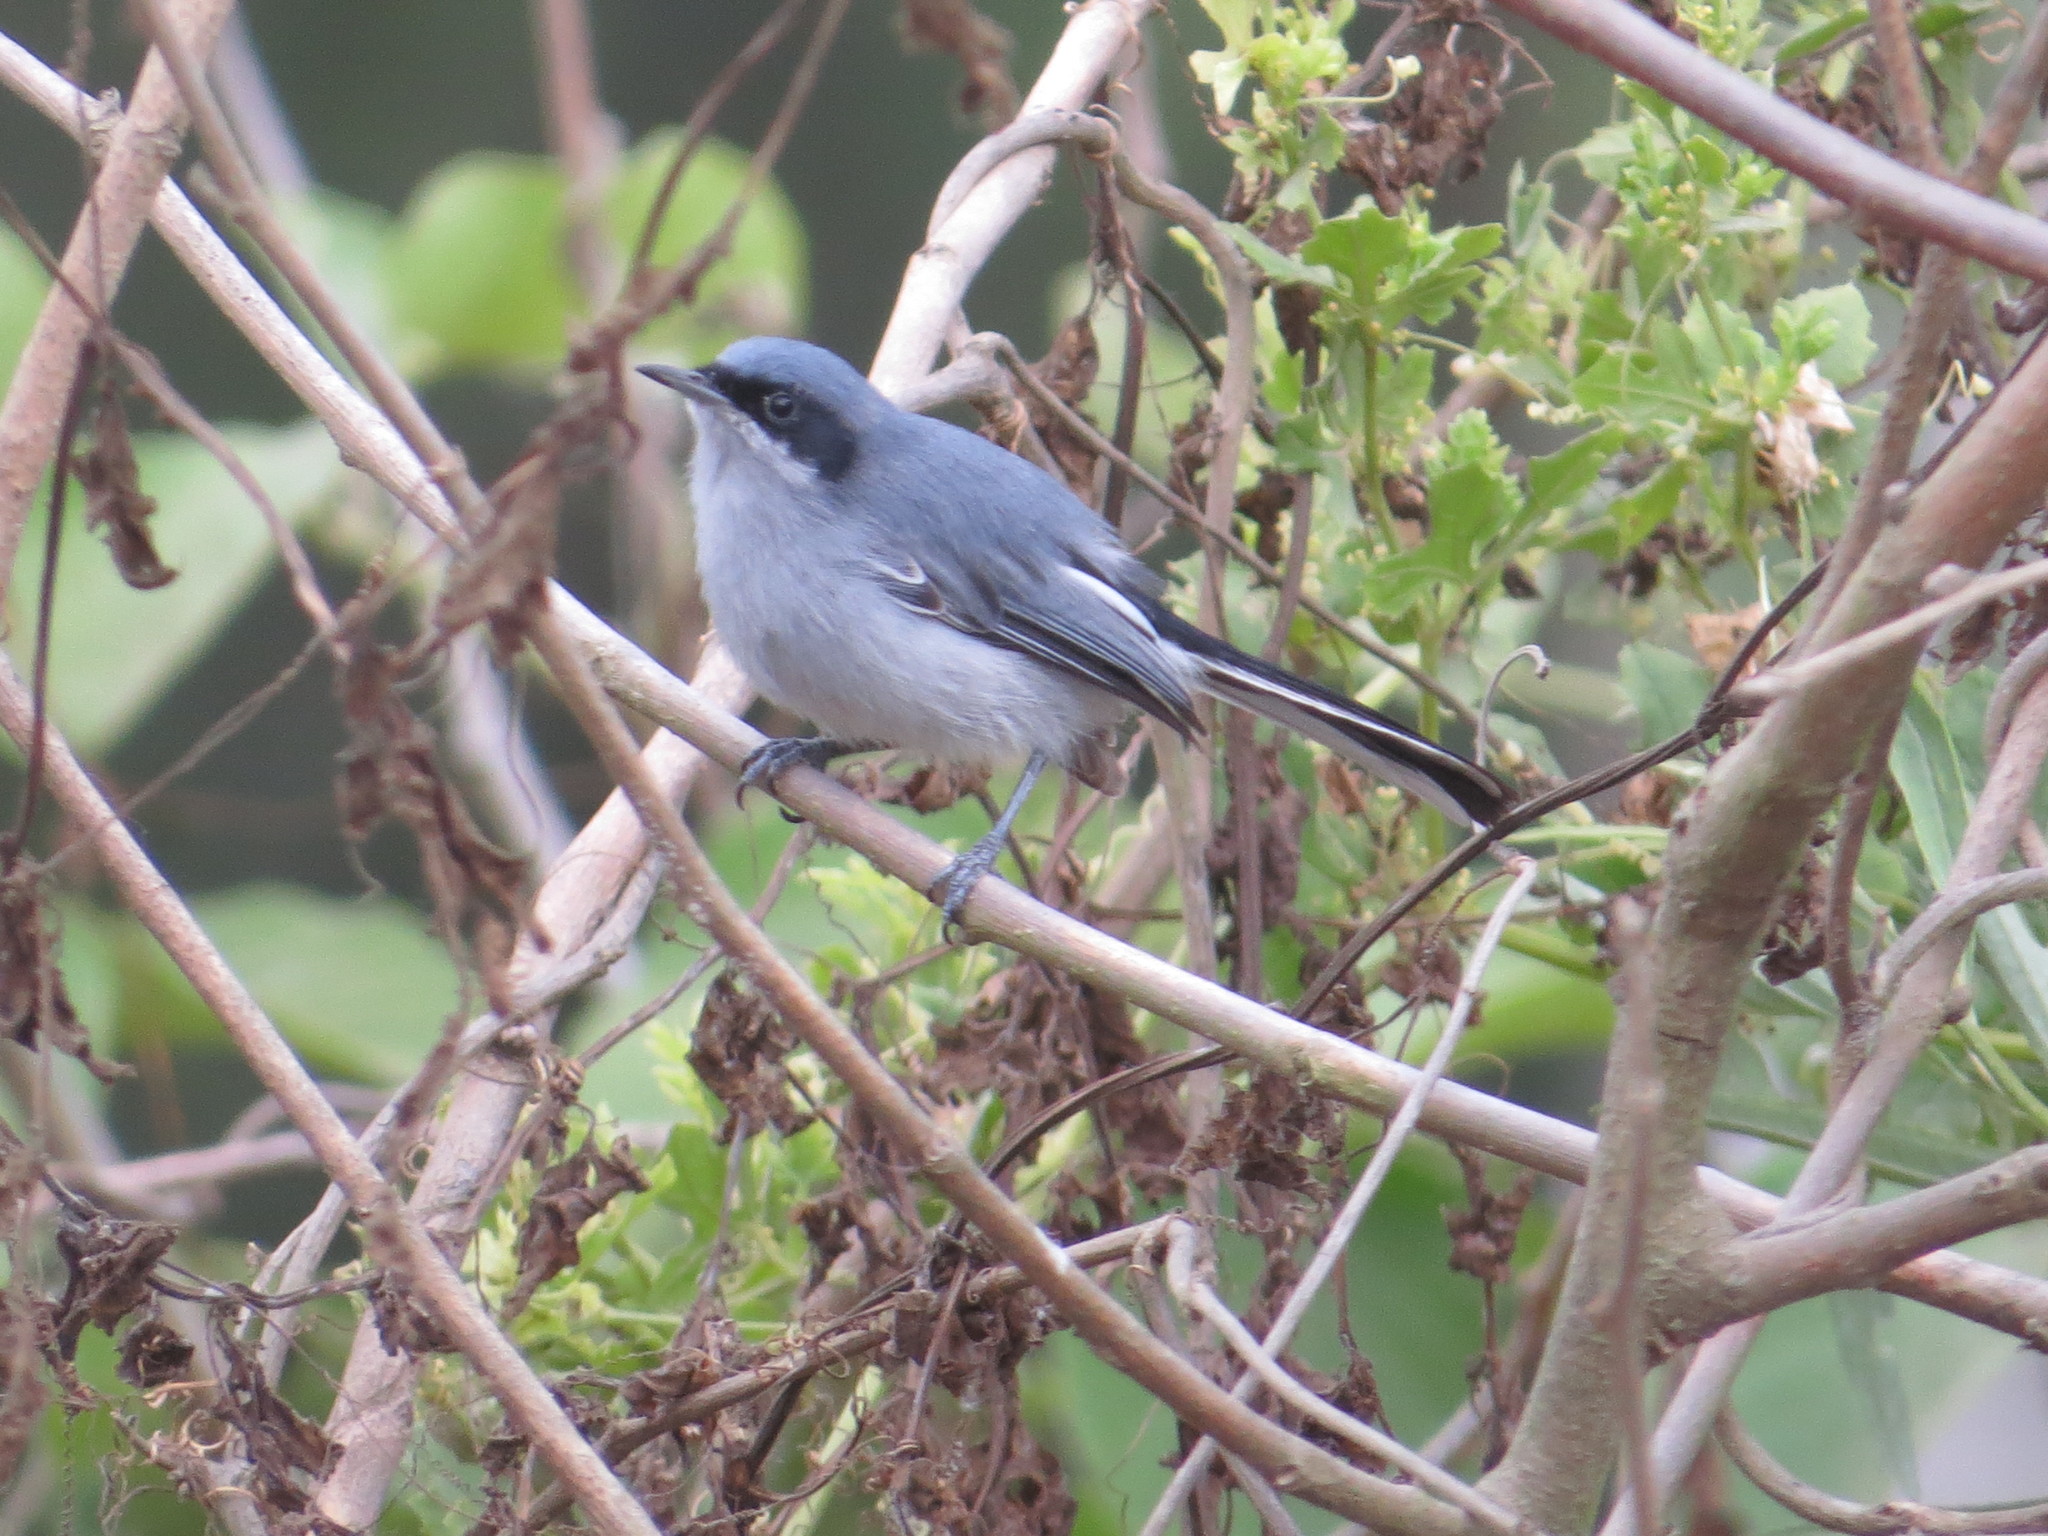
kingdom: Animalia
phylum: Chordata
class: Aves
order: Passeriformes
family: Polioptilidae
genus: Polioptila
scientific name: Polioptila dumicola
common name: Masked gnatcatcher
